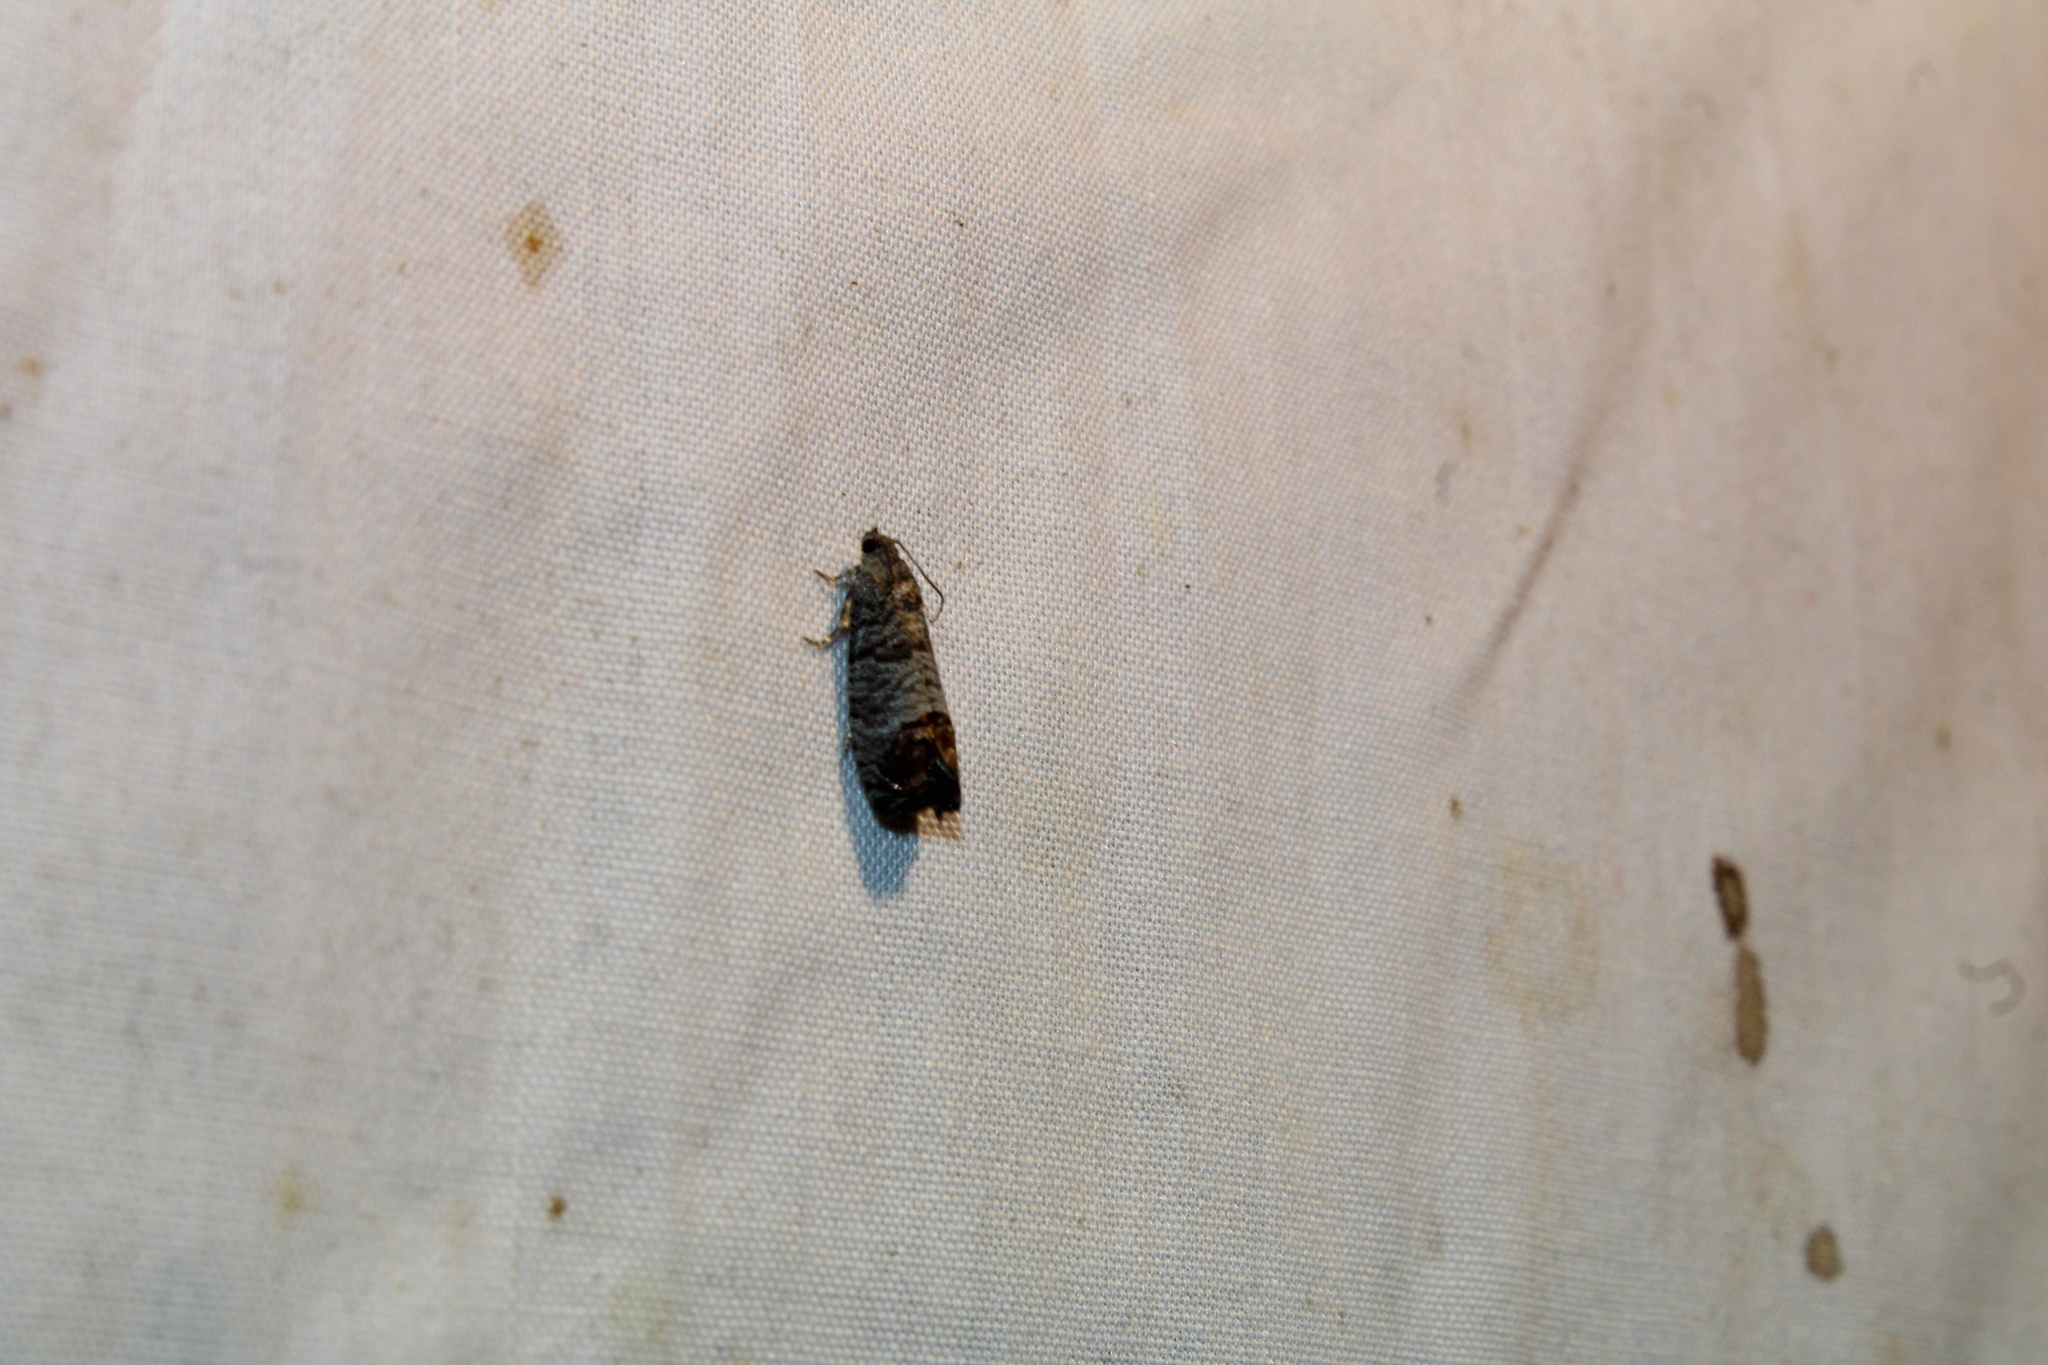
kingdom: Animalia
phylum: Arthropoda
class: Insecta
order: Lepidoptera
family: Tortricidae
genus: Cydia
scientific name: Cydia pomonella
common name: Codling moth
